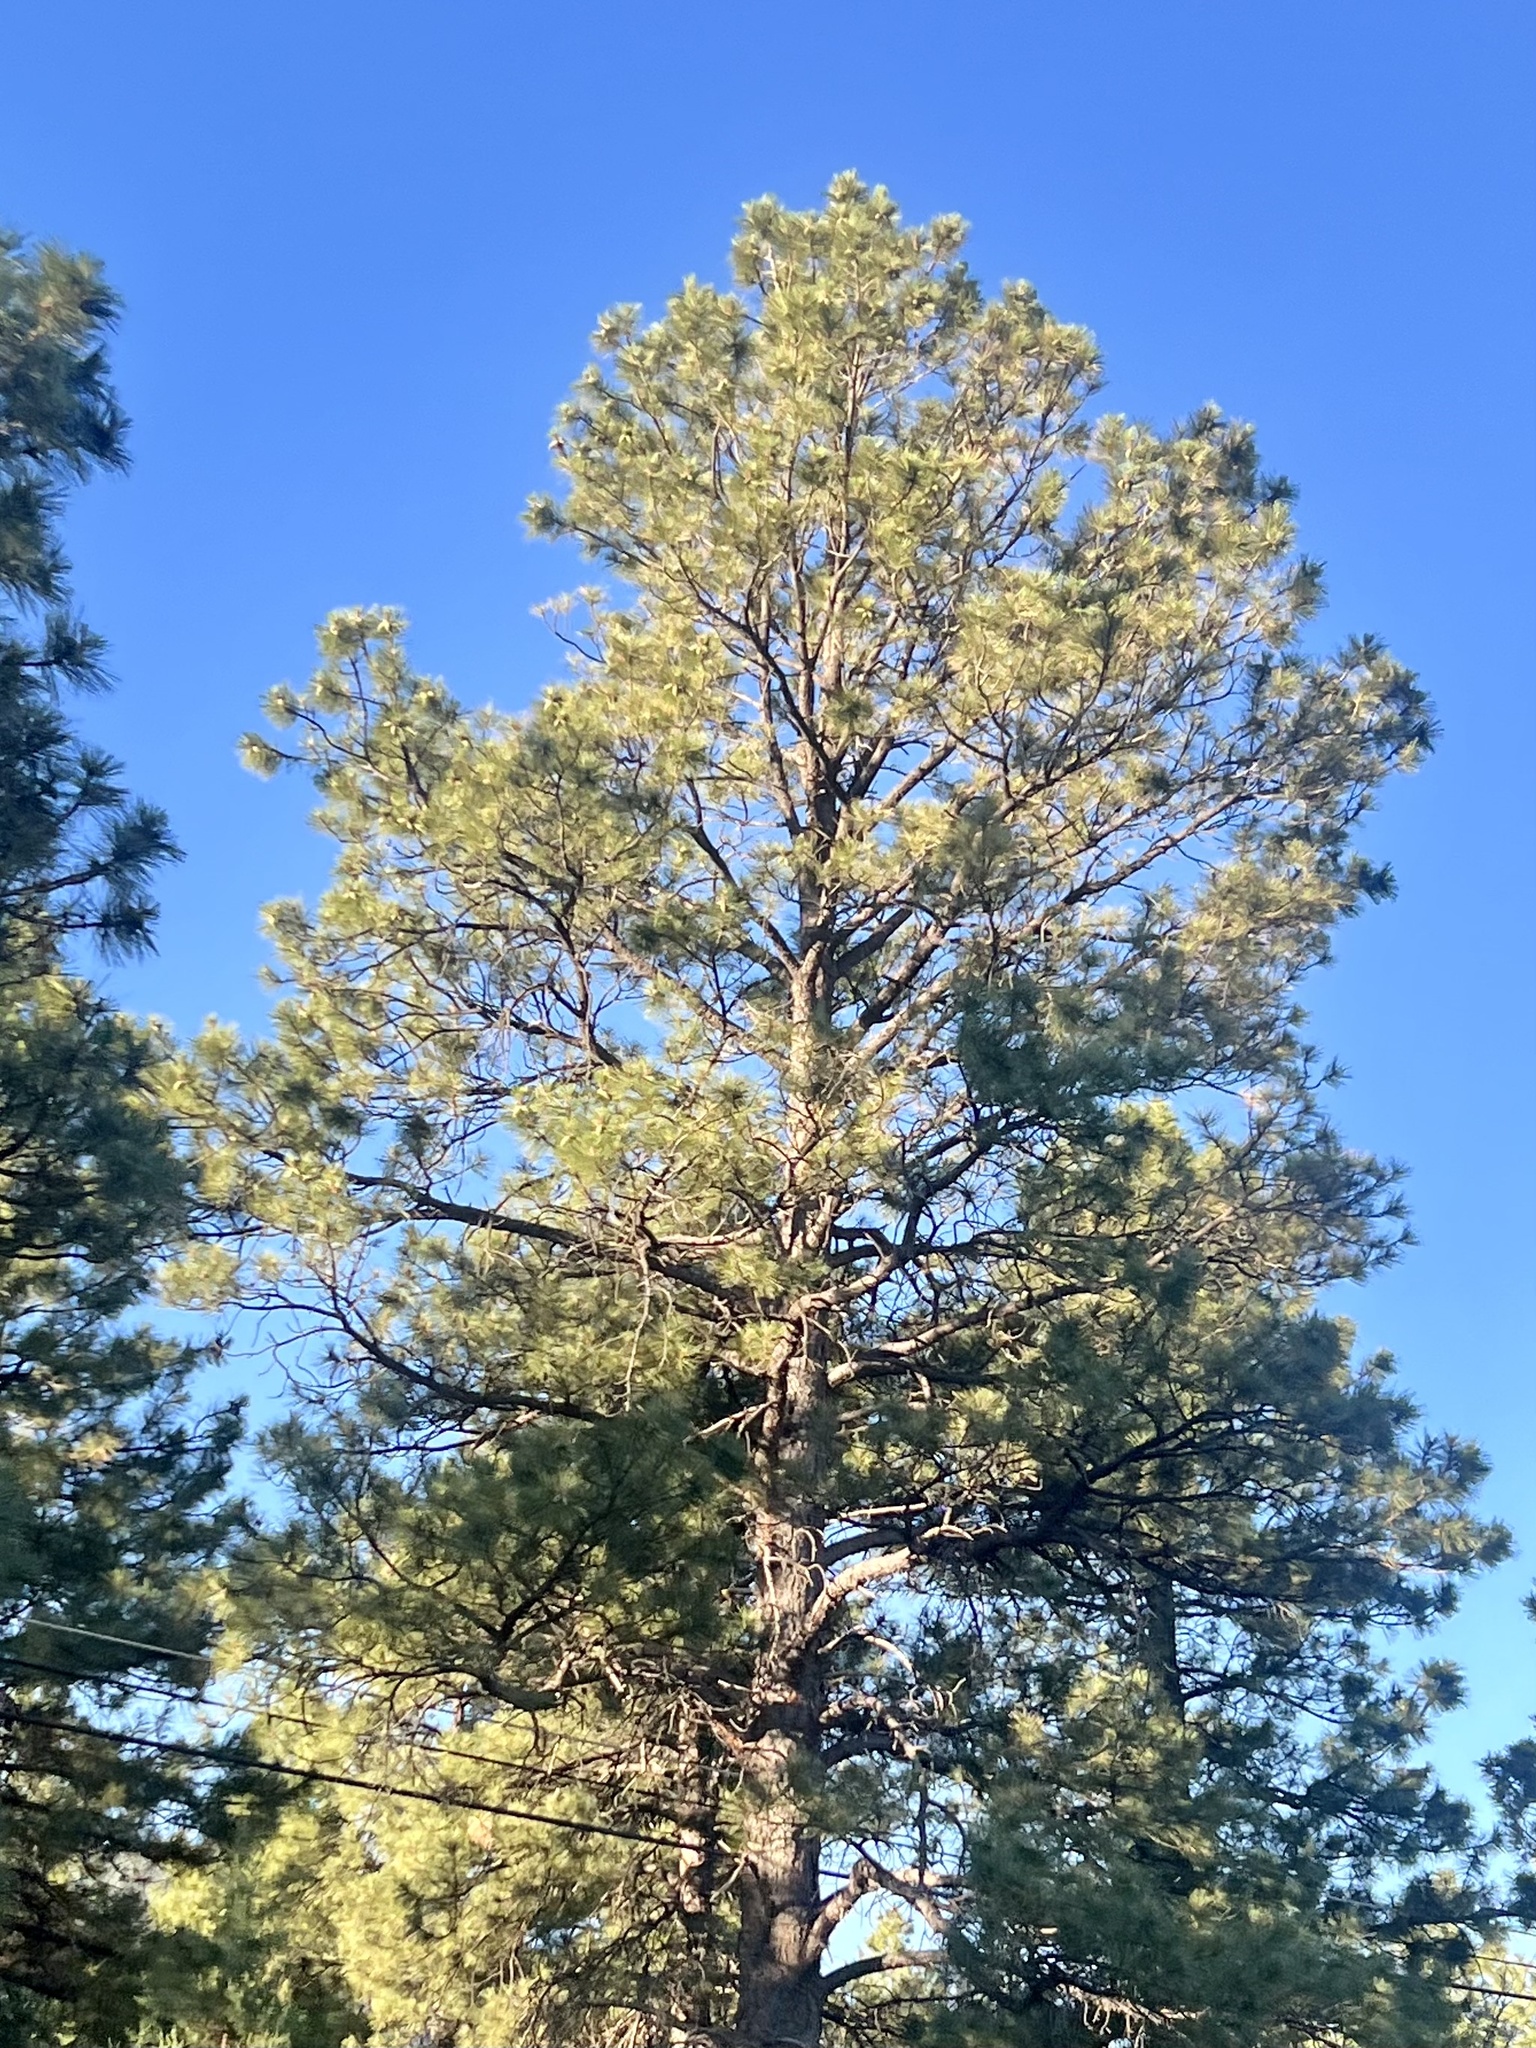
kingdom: Plantae
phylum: Tracheophyta
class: Pinopsida
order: Pinales
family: Pinaceae
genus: Pinus
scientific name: Pinus ponderosa
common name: Western yellow-pine
